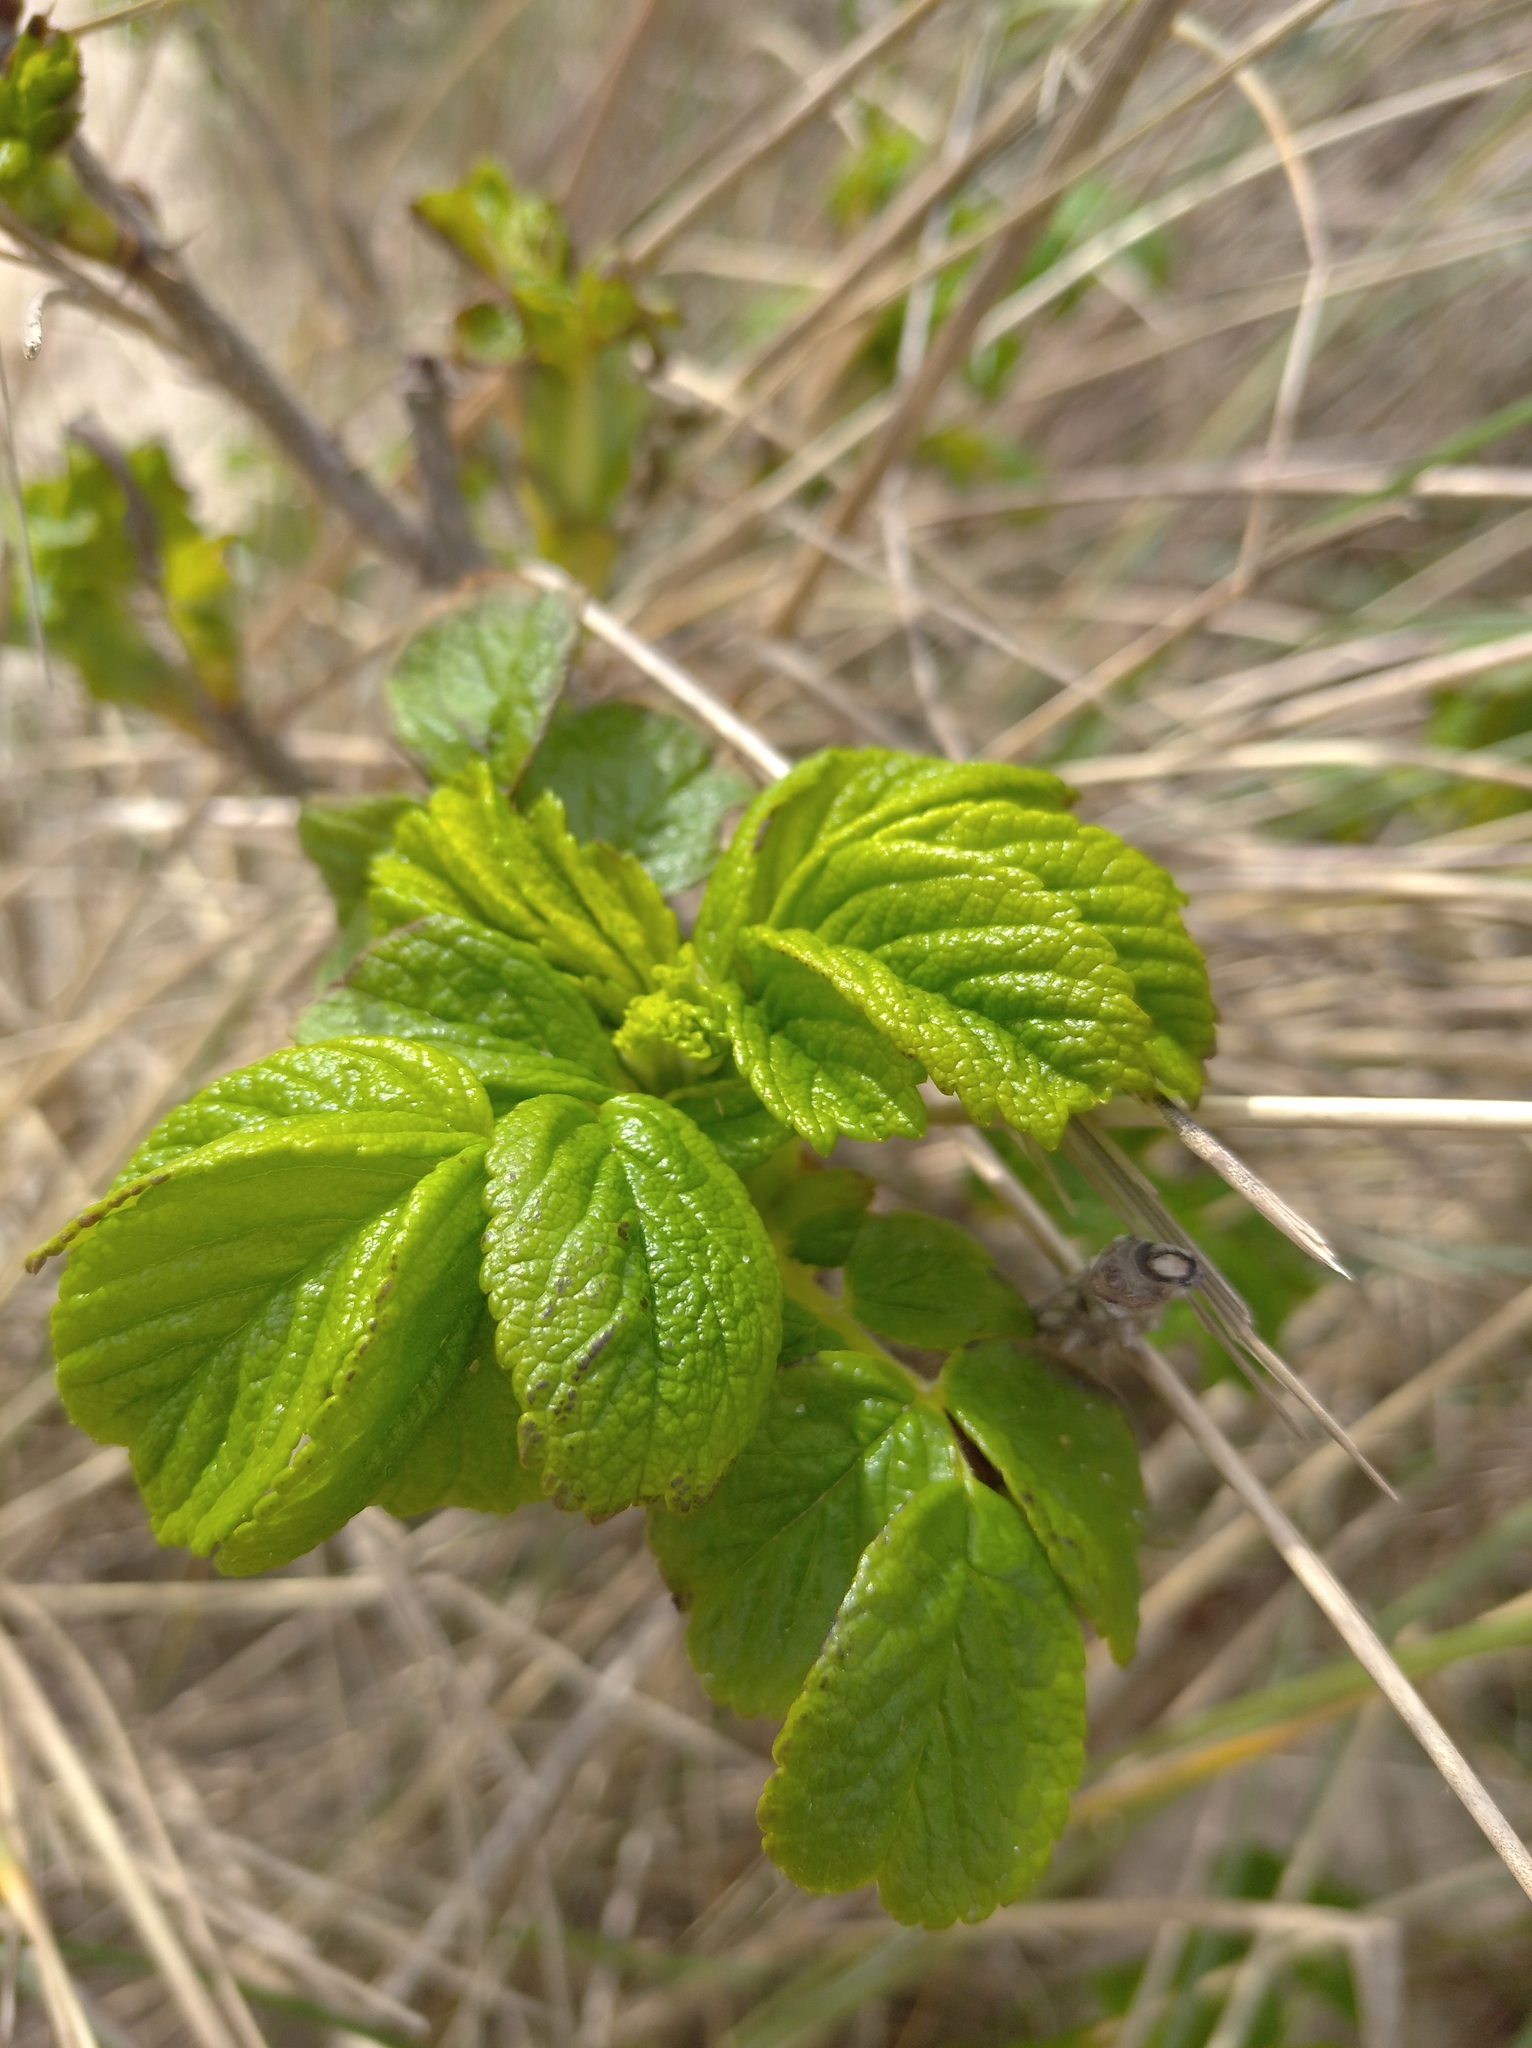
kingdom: Plantae
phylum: Tracheophyta
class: Magnoliopsida
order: Rosales
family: Rosaceae
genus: Rosa
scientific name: Rosa rugosa
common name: Japanese rose
